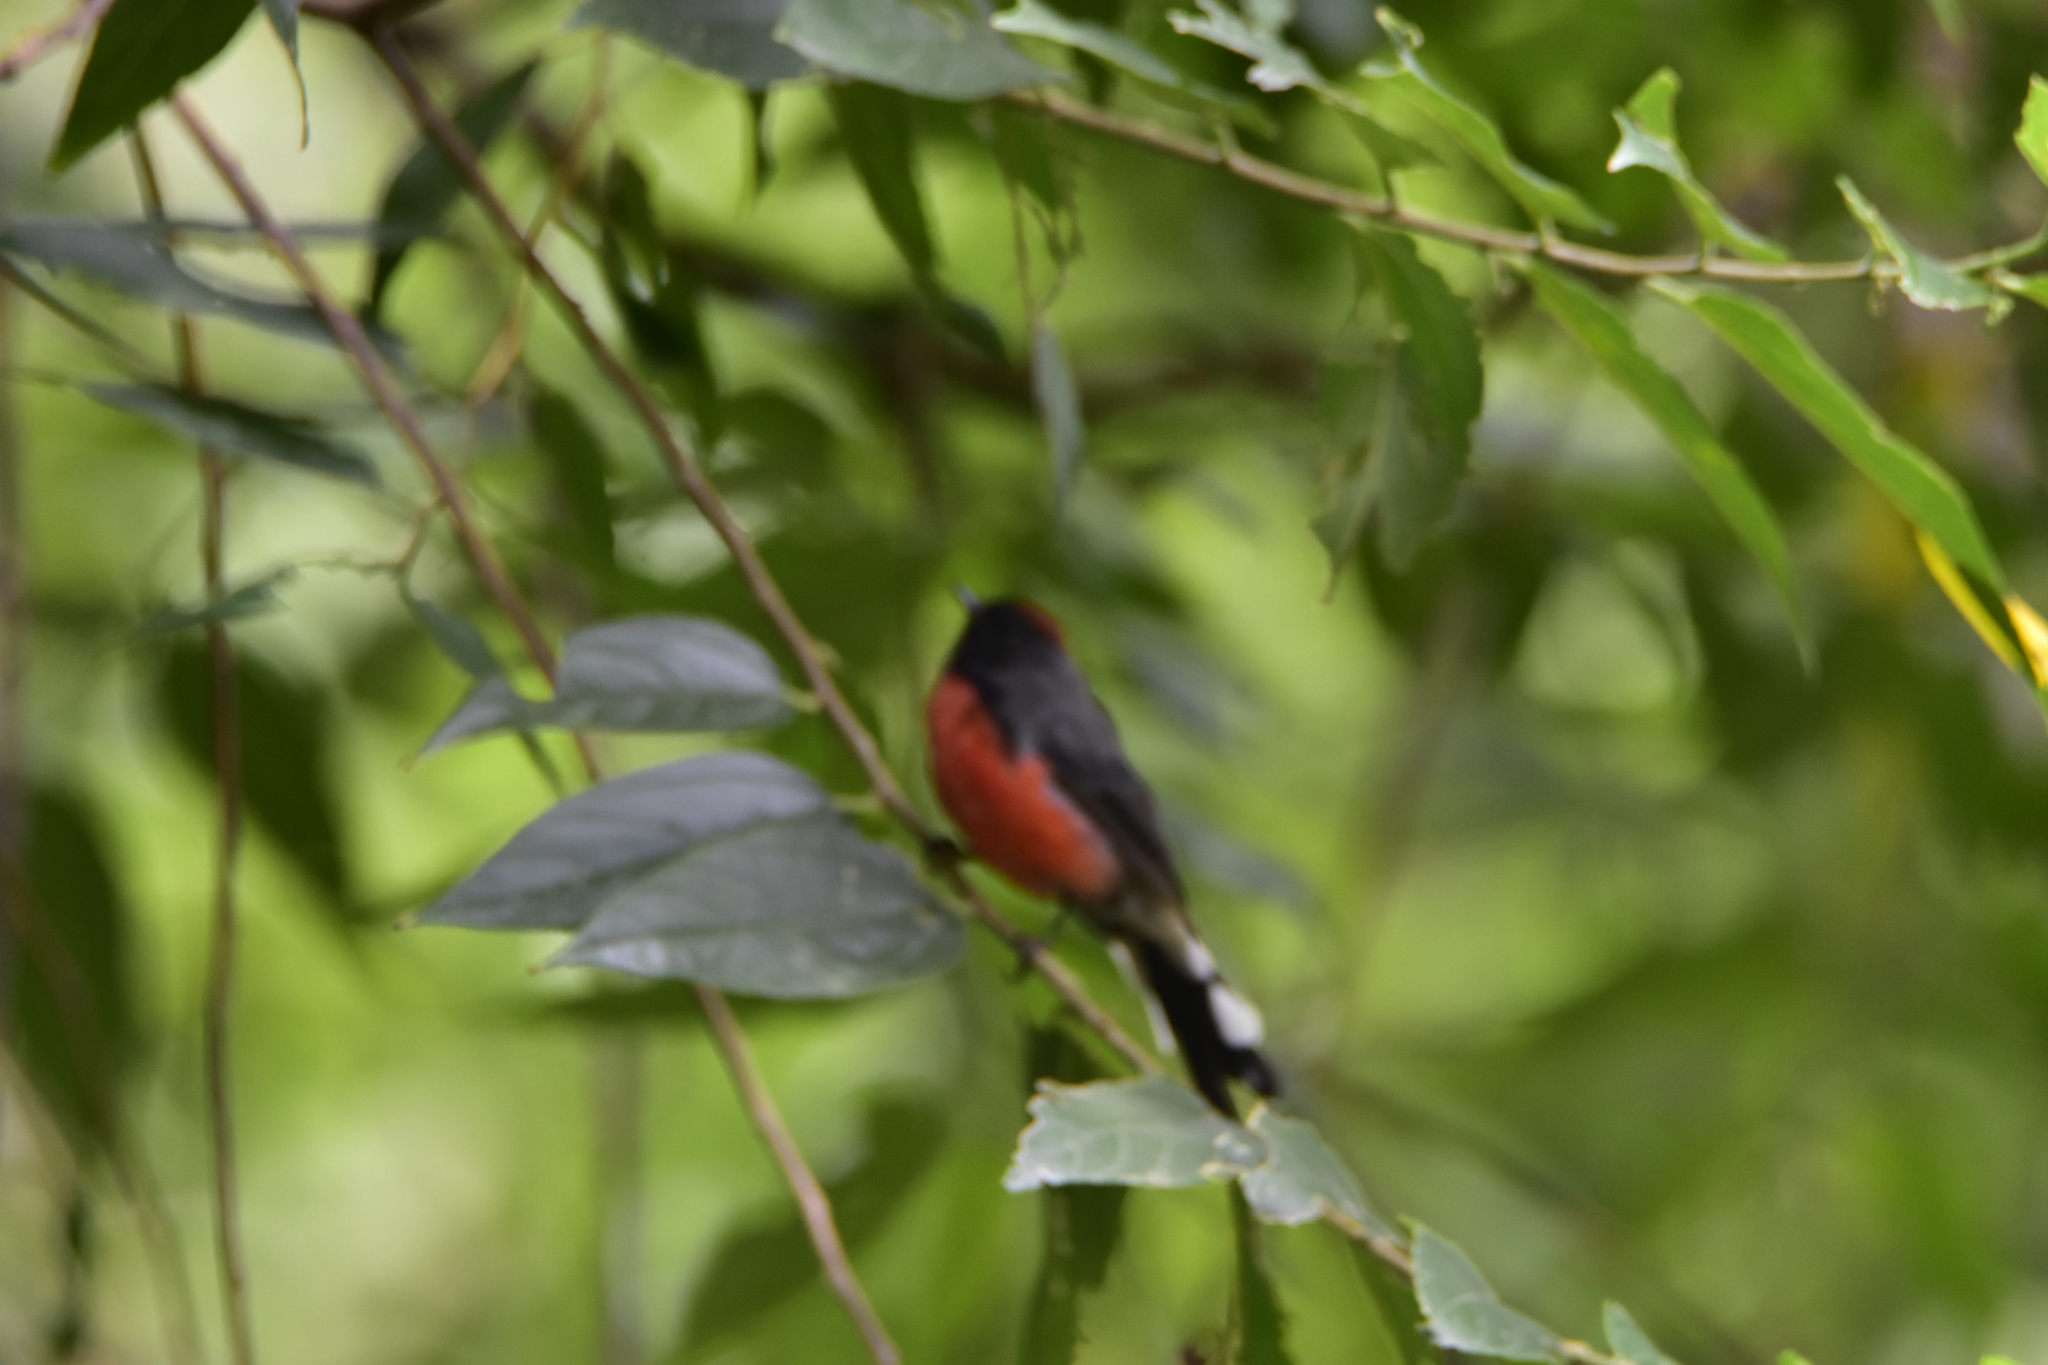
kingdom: Animalia
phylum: Chordata
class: Aves
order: Passeriformes
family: Parulidae
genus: Myioborus
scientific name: Myioborus miniatus
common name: Slate-throated redstart
